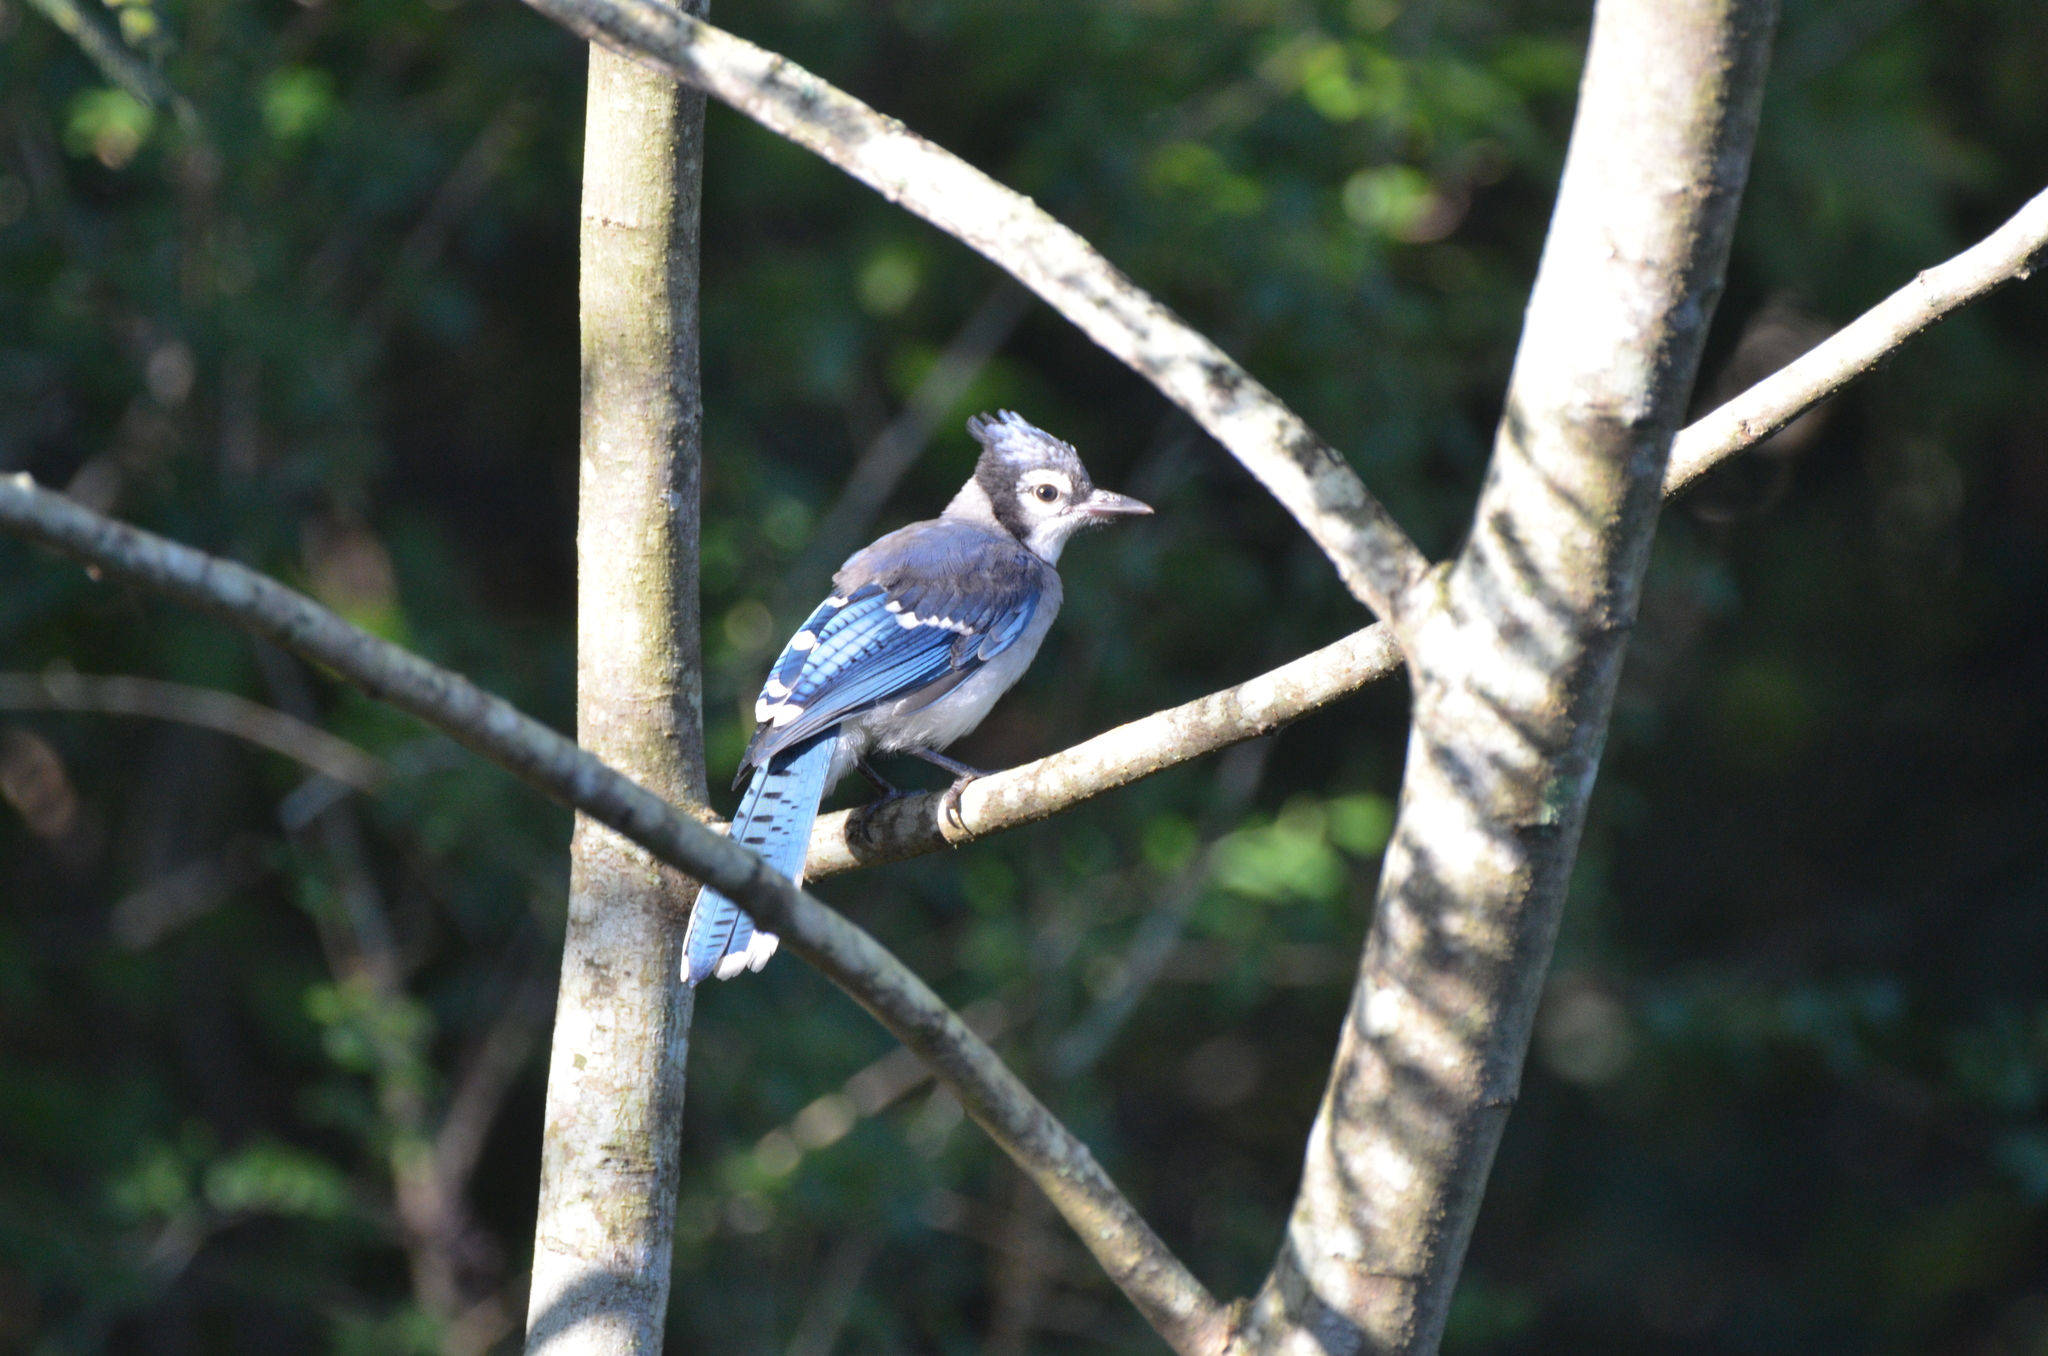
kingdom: Animalia
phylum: Chordata
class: Aves
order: Passeriformes
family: Corvidae
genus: Cyanocitta
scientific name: Cyanocitta cristata
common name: Blue jay
